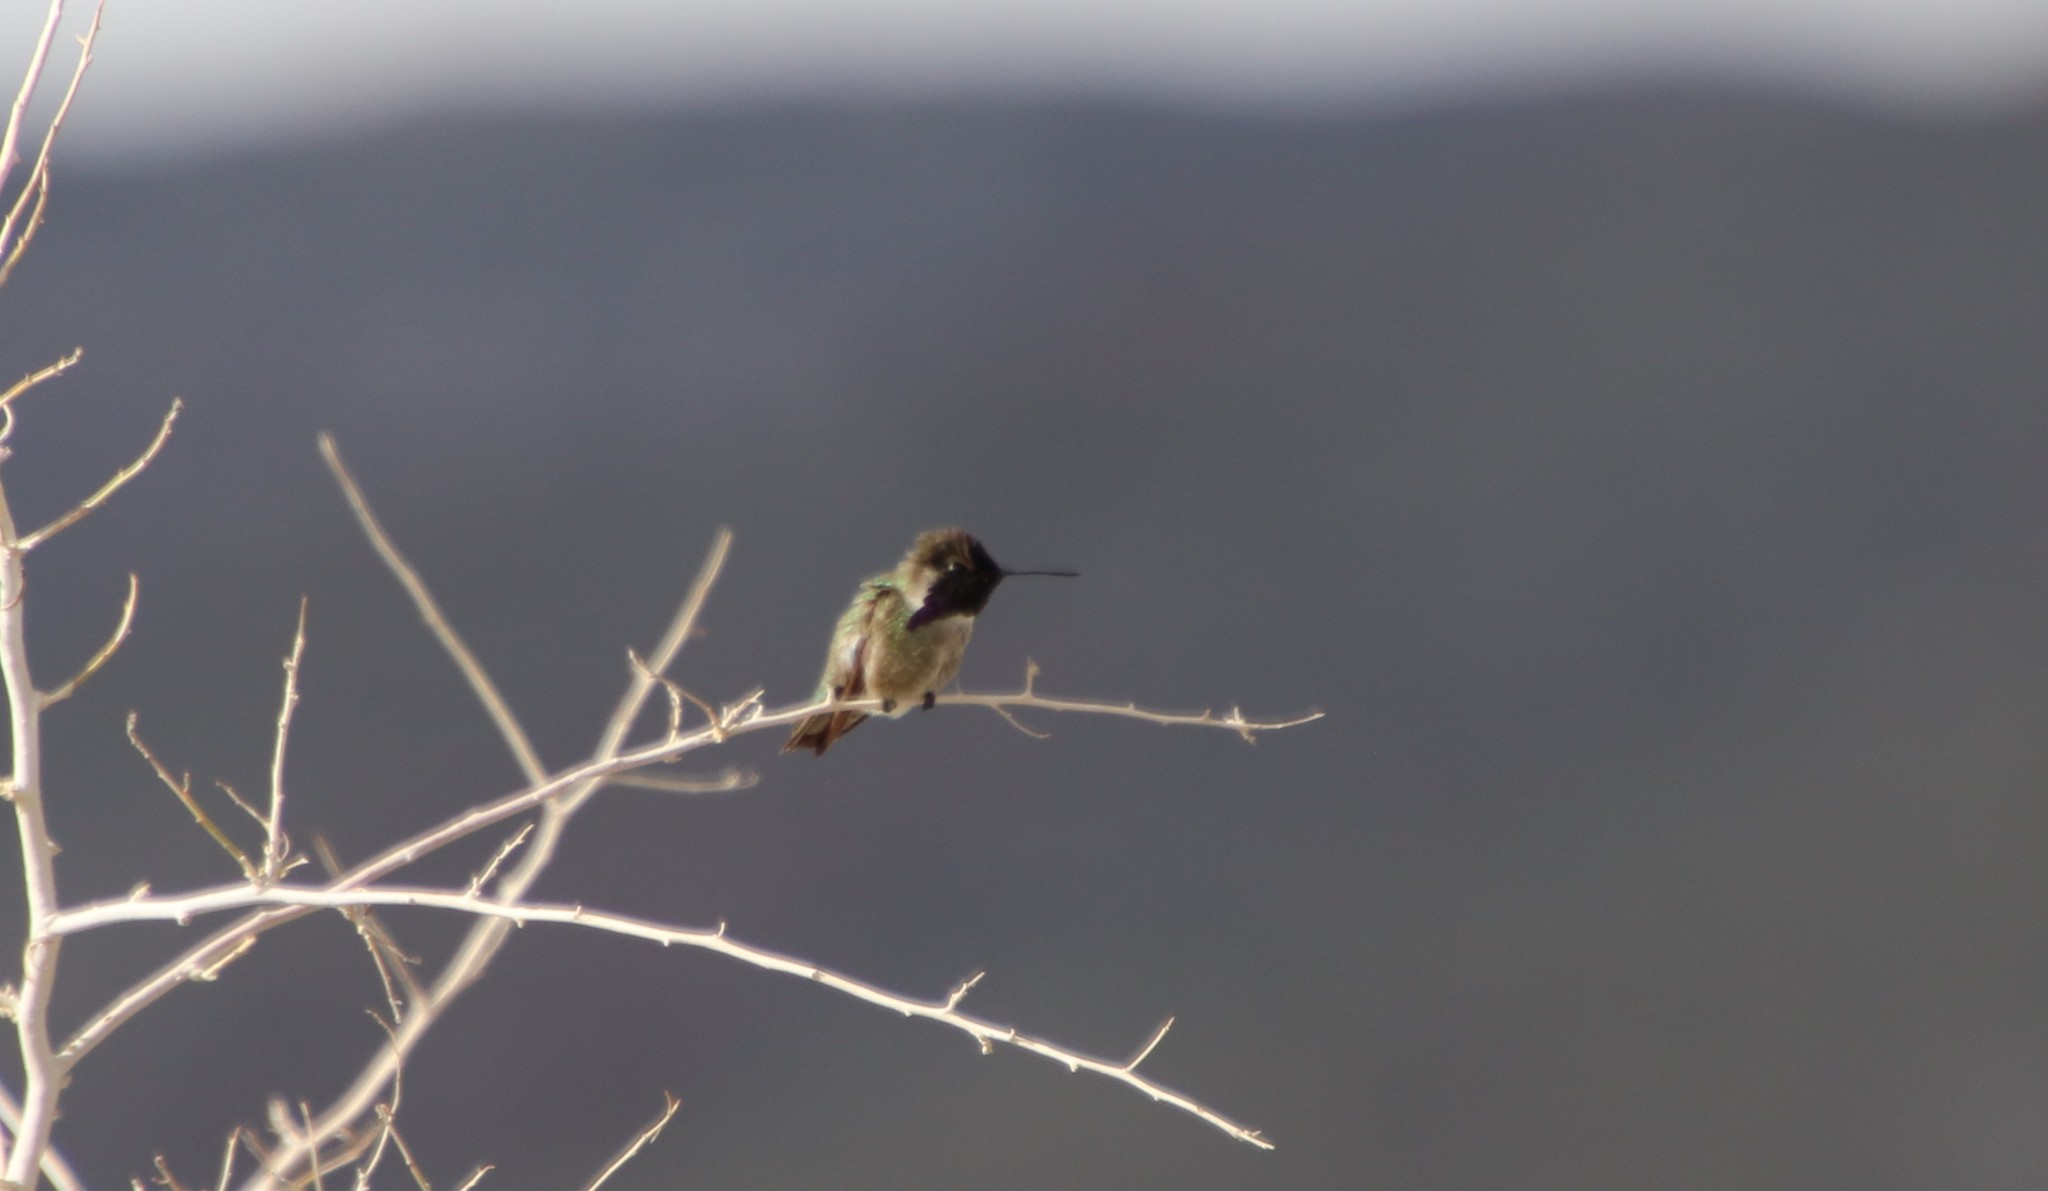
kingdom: Animalia
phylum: Chordata
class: Aves
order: Apodiformes
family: Trochilidae
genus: Calypte
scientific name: Calypte costae
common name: Costa's hummingbird
